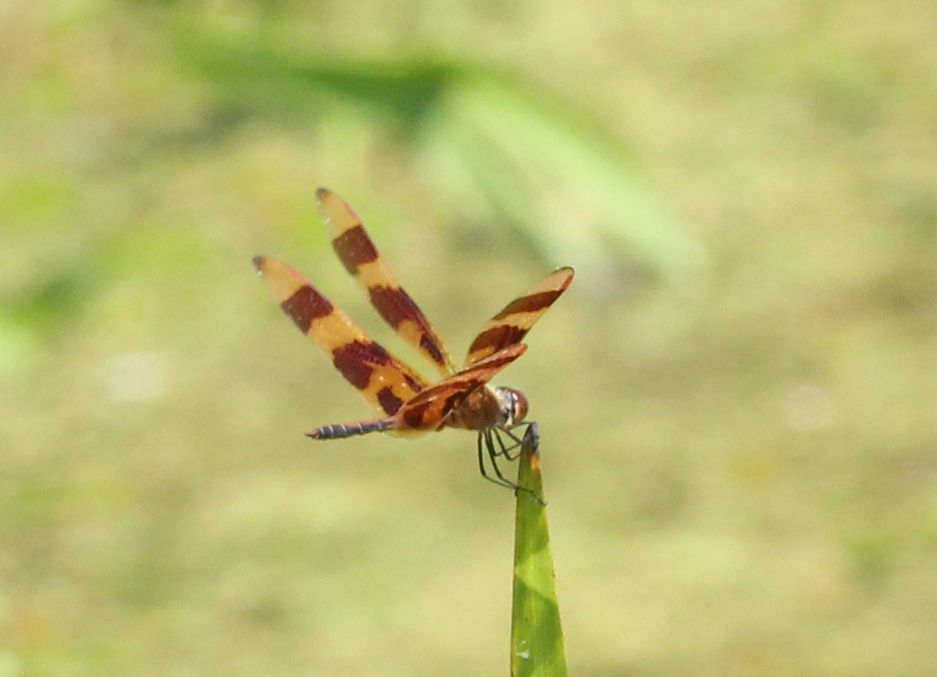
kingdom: Animalia
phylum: Arthropoda
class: Insecta
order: Odonata
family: Libellulidae
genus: Celithemis
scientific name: Celithemis eponina
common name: Halloween pennant
